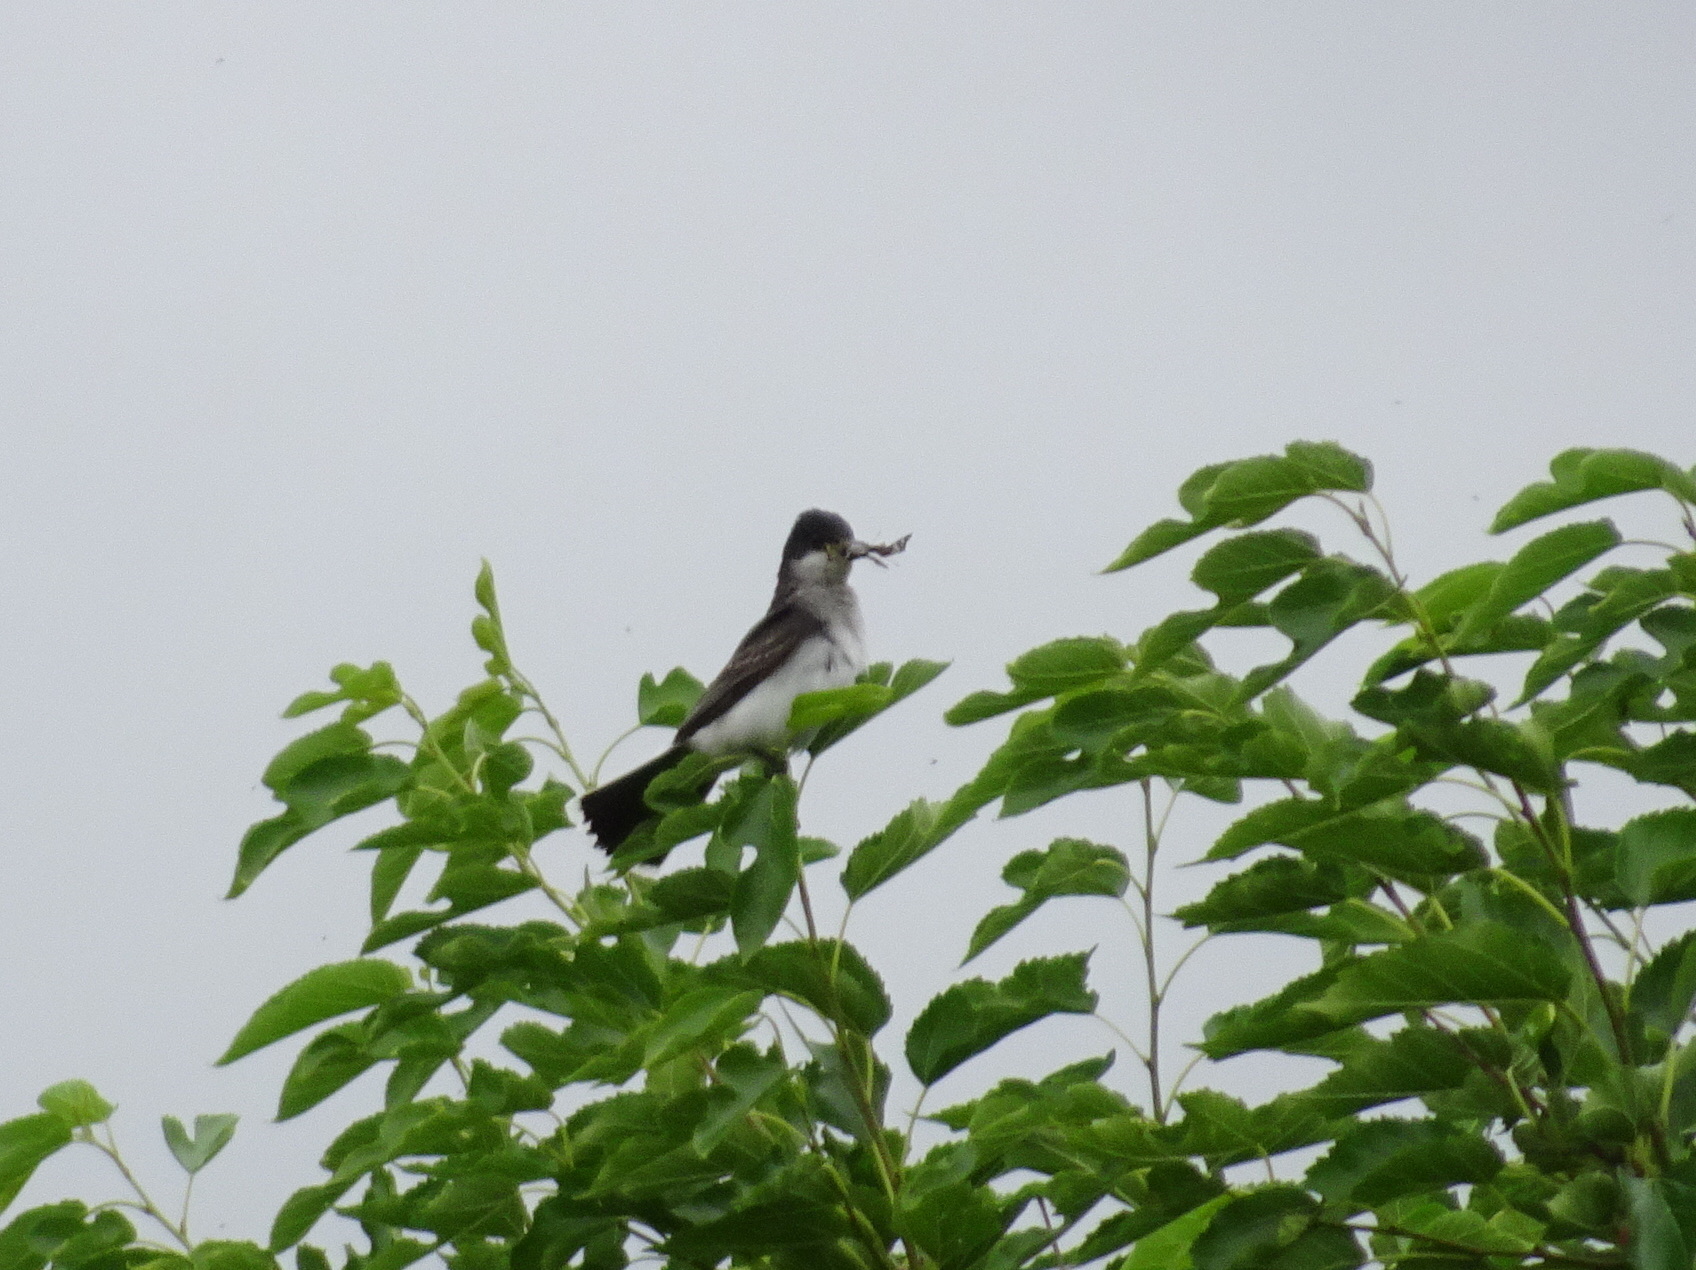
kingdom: Animalia
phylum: Chordata
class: Aves
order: Passeriformes
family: Tyrannidae
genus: Tyrannus
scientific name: Tyrannus tyrannus
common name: Eastern kingbird
